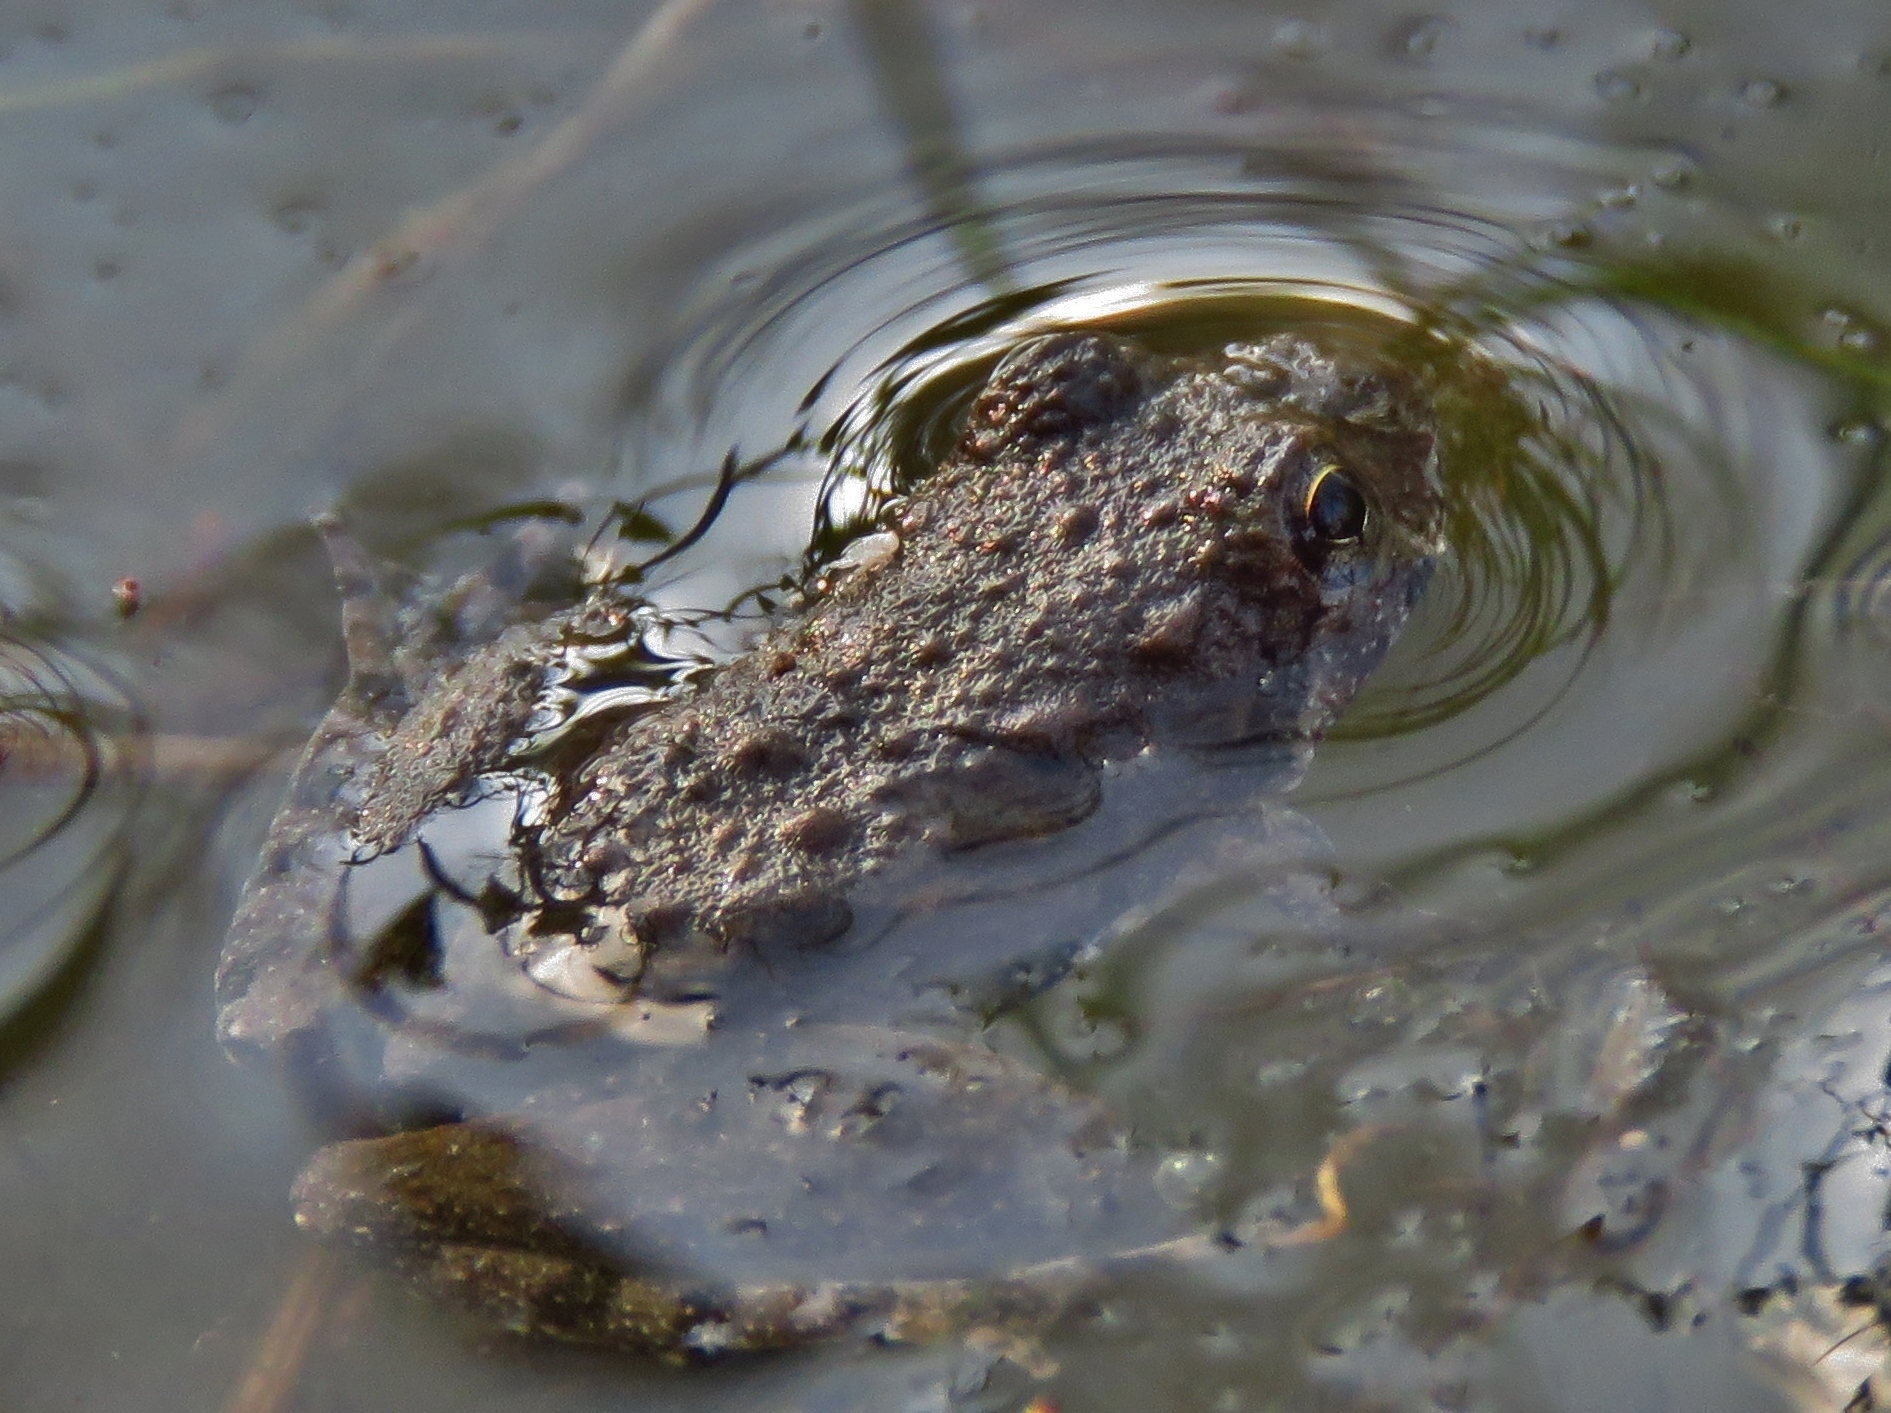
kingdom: Animalia
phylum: Chordata
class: Amphibia
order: Anura
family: Hylidae
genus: Acris
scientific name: Acris blanchardi
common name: Blanchard's cricket frog
